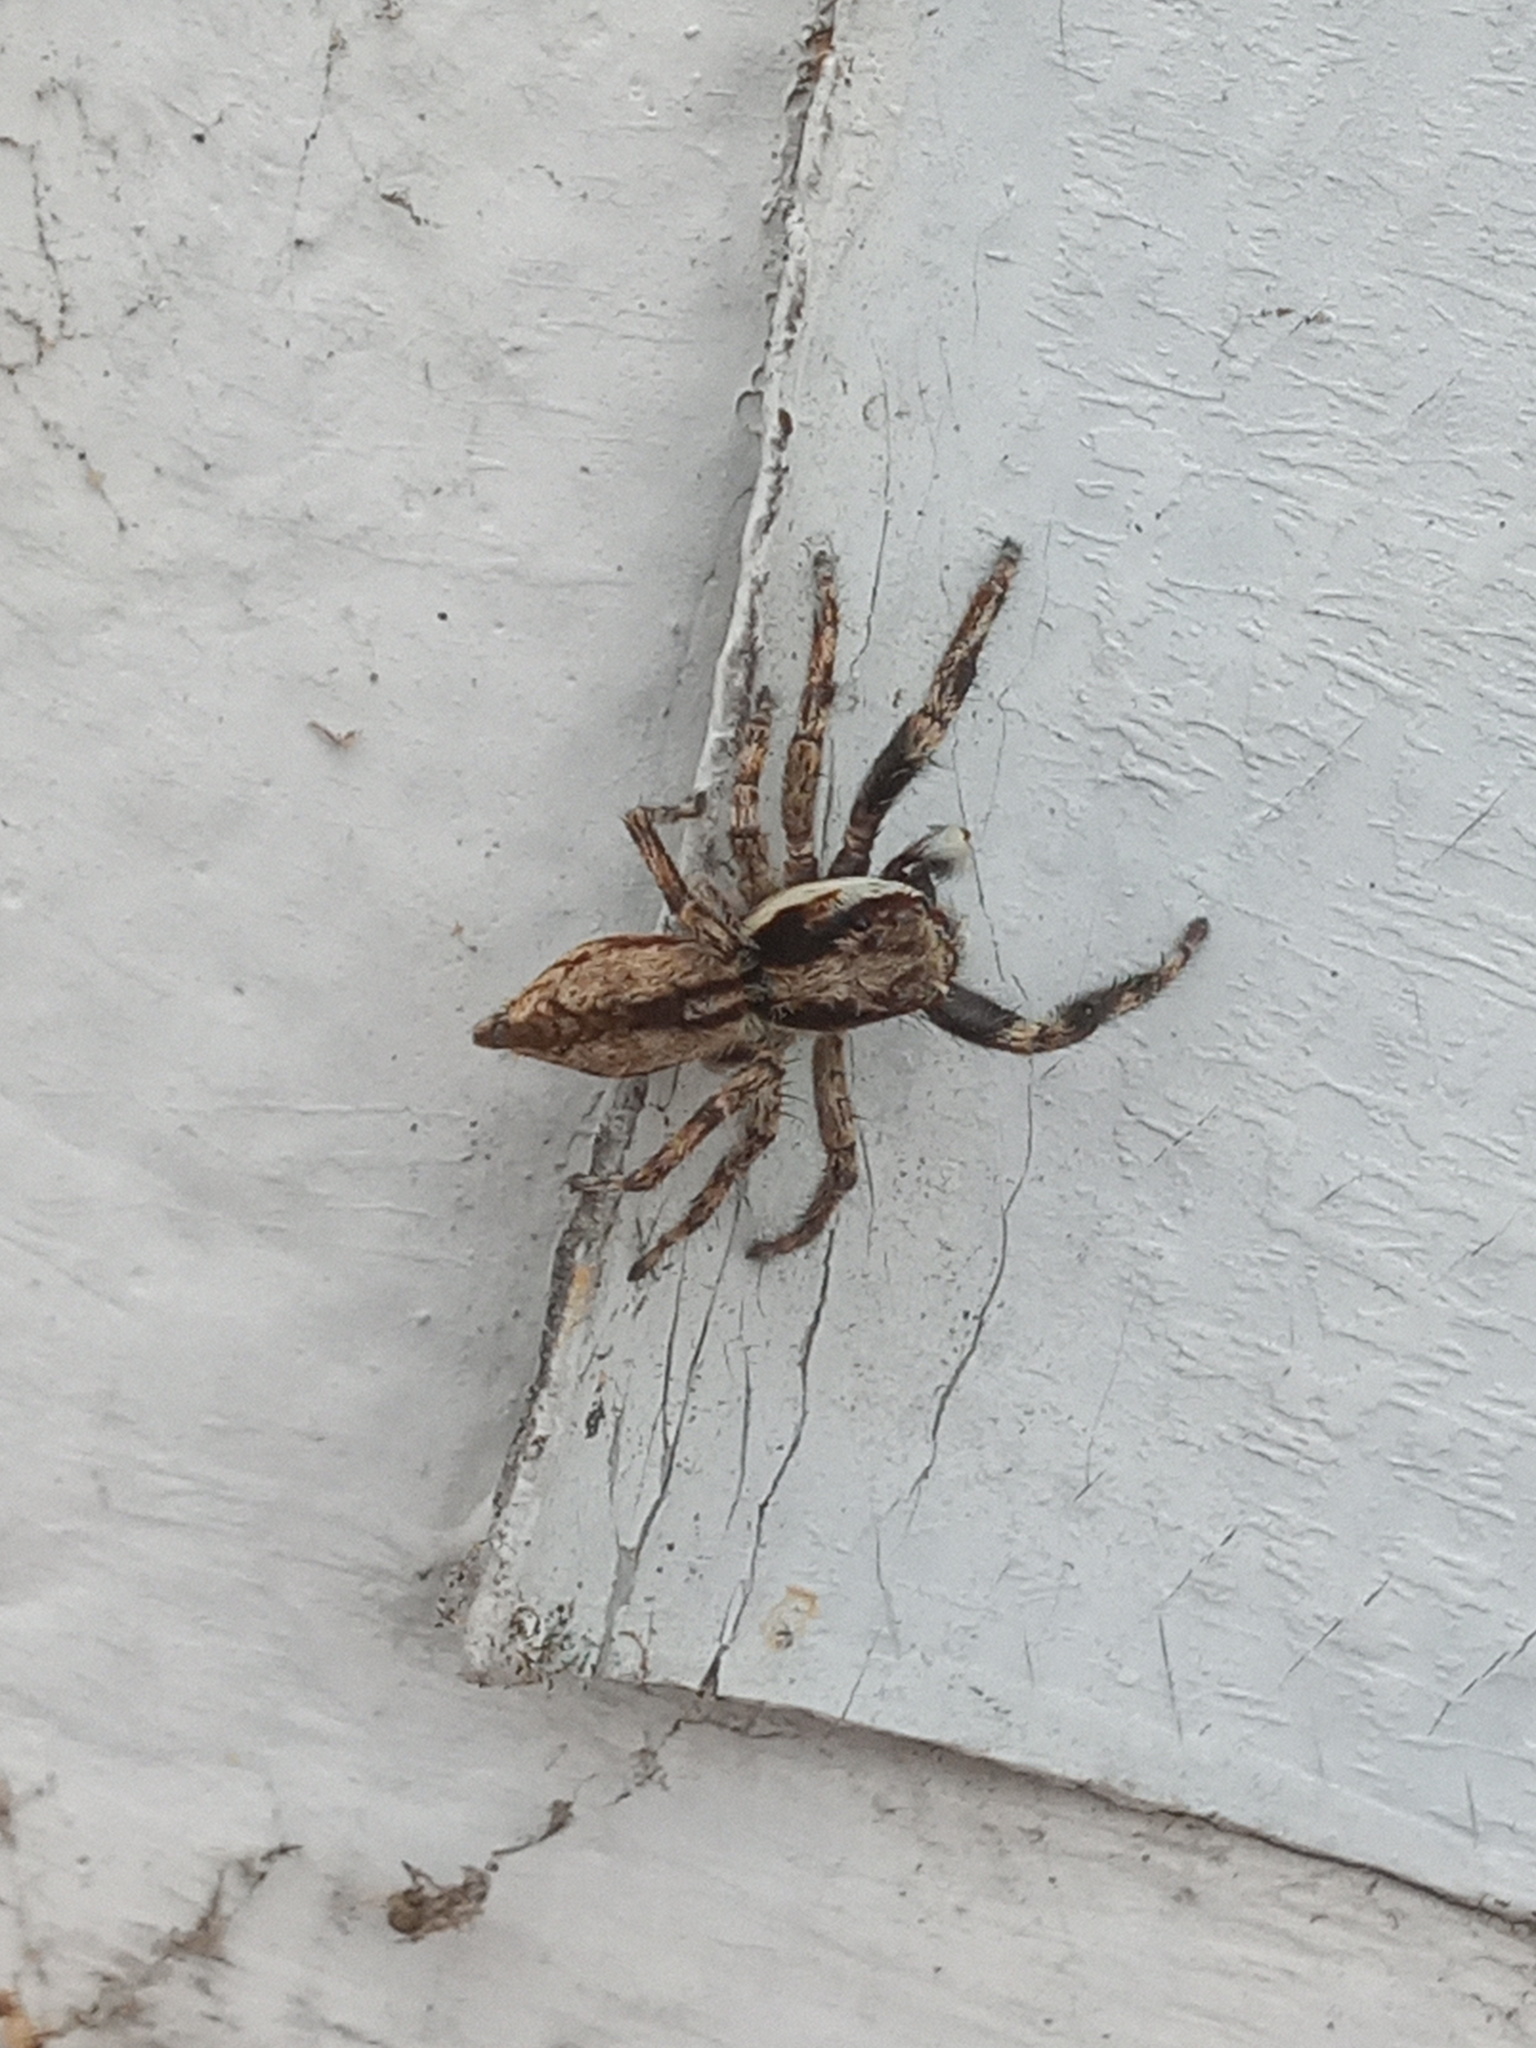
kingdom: Animalia
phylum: Arthropoda
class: Arachnida
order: Araneae
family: Salticidae
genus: Menemerus
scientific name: Menemerus bivittatus
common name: Gray wall jumper
